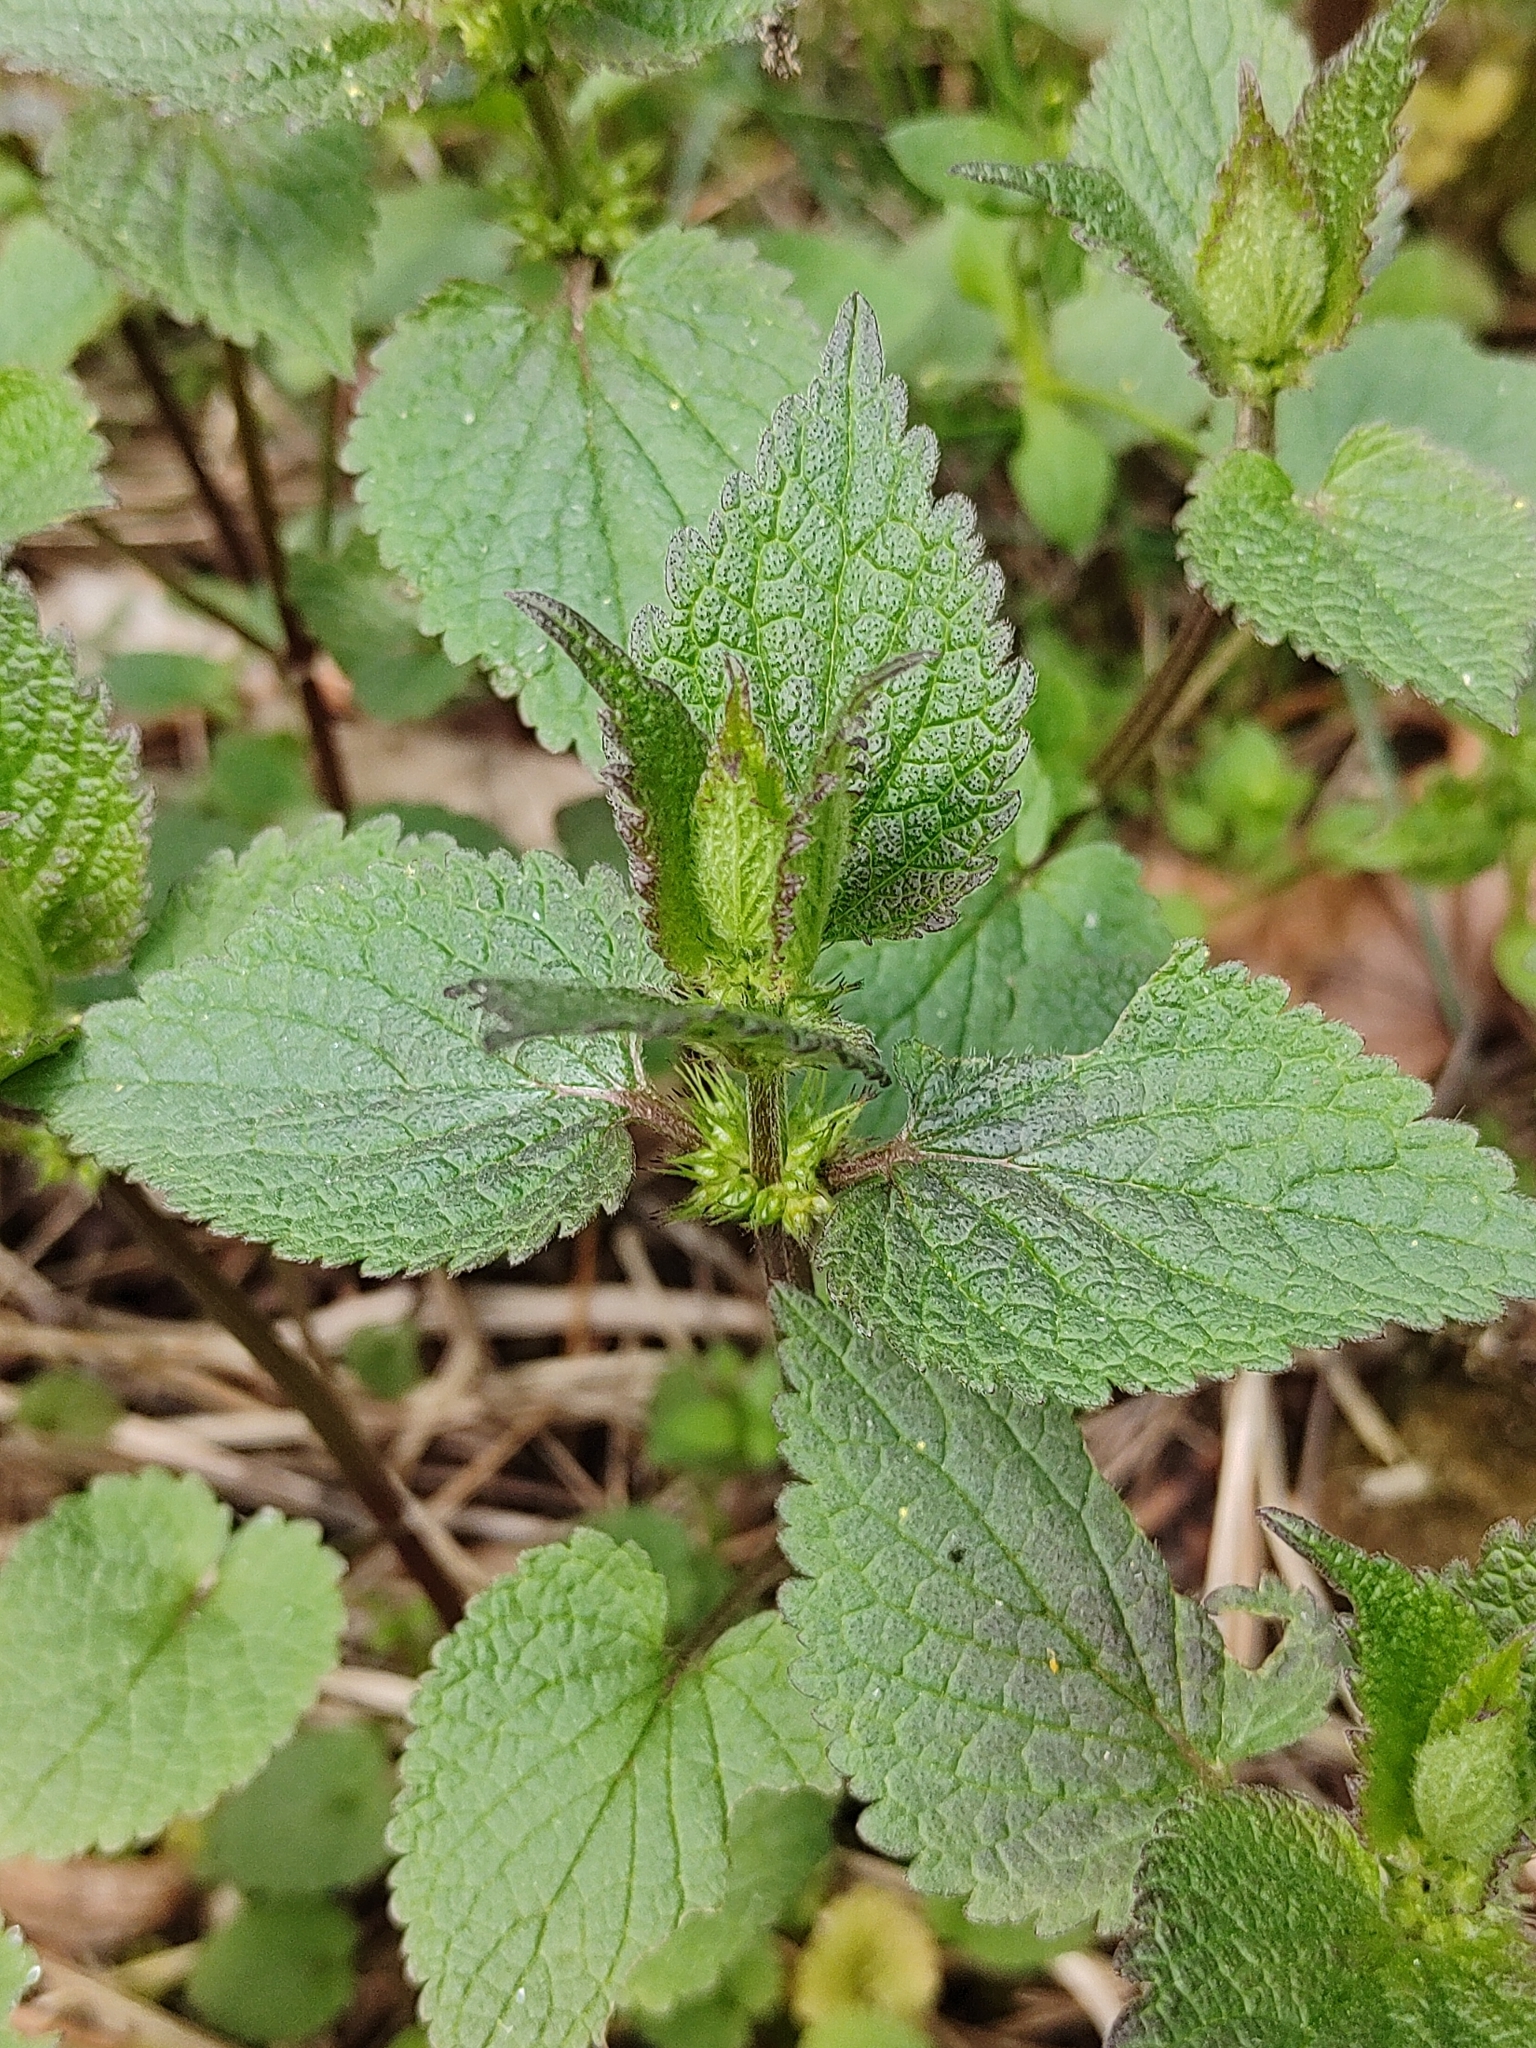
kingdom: Plantae
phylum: Tracheophyta
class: Magnoliopsida
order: Lamiales
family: Lamiaceae
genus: Lamium
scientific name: Lamium album
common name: White dead-nettle
